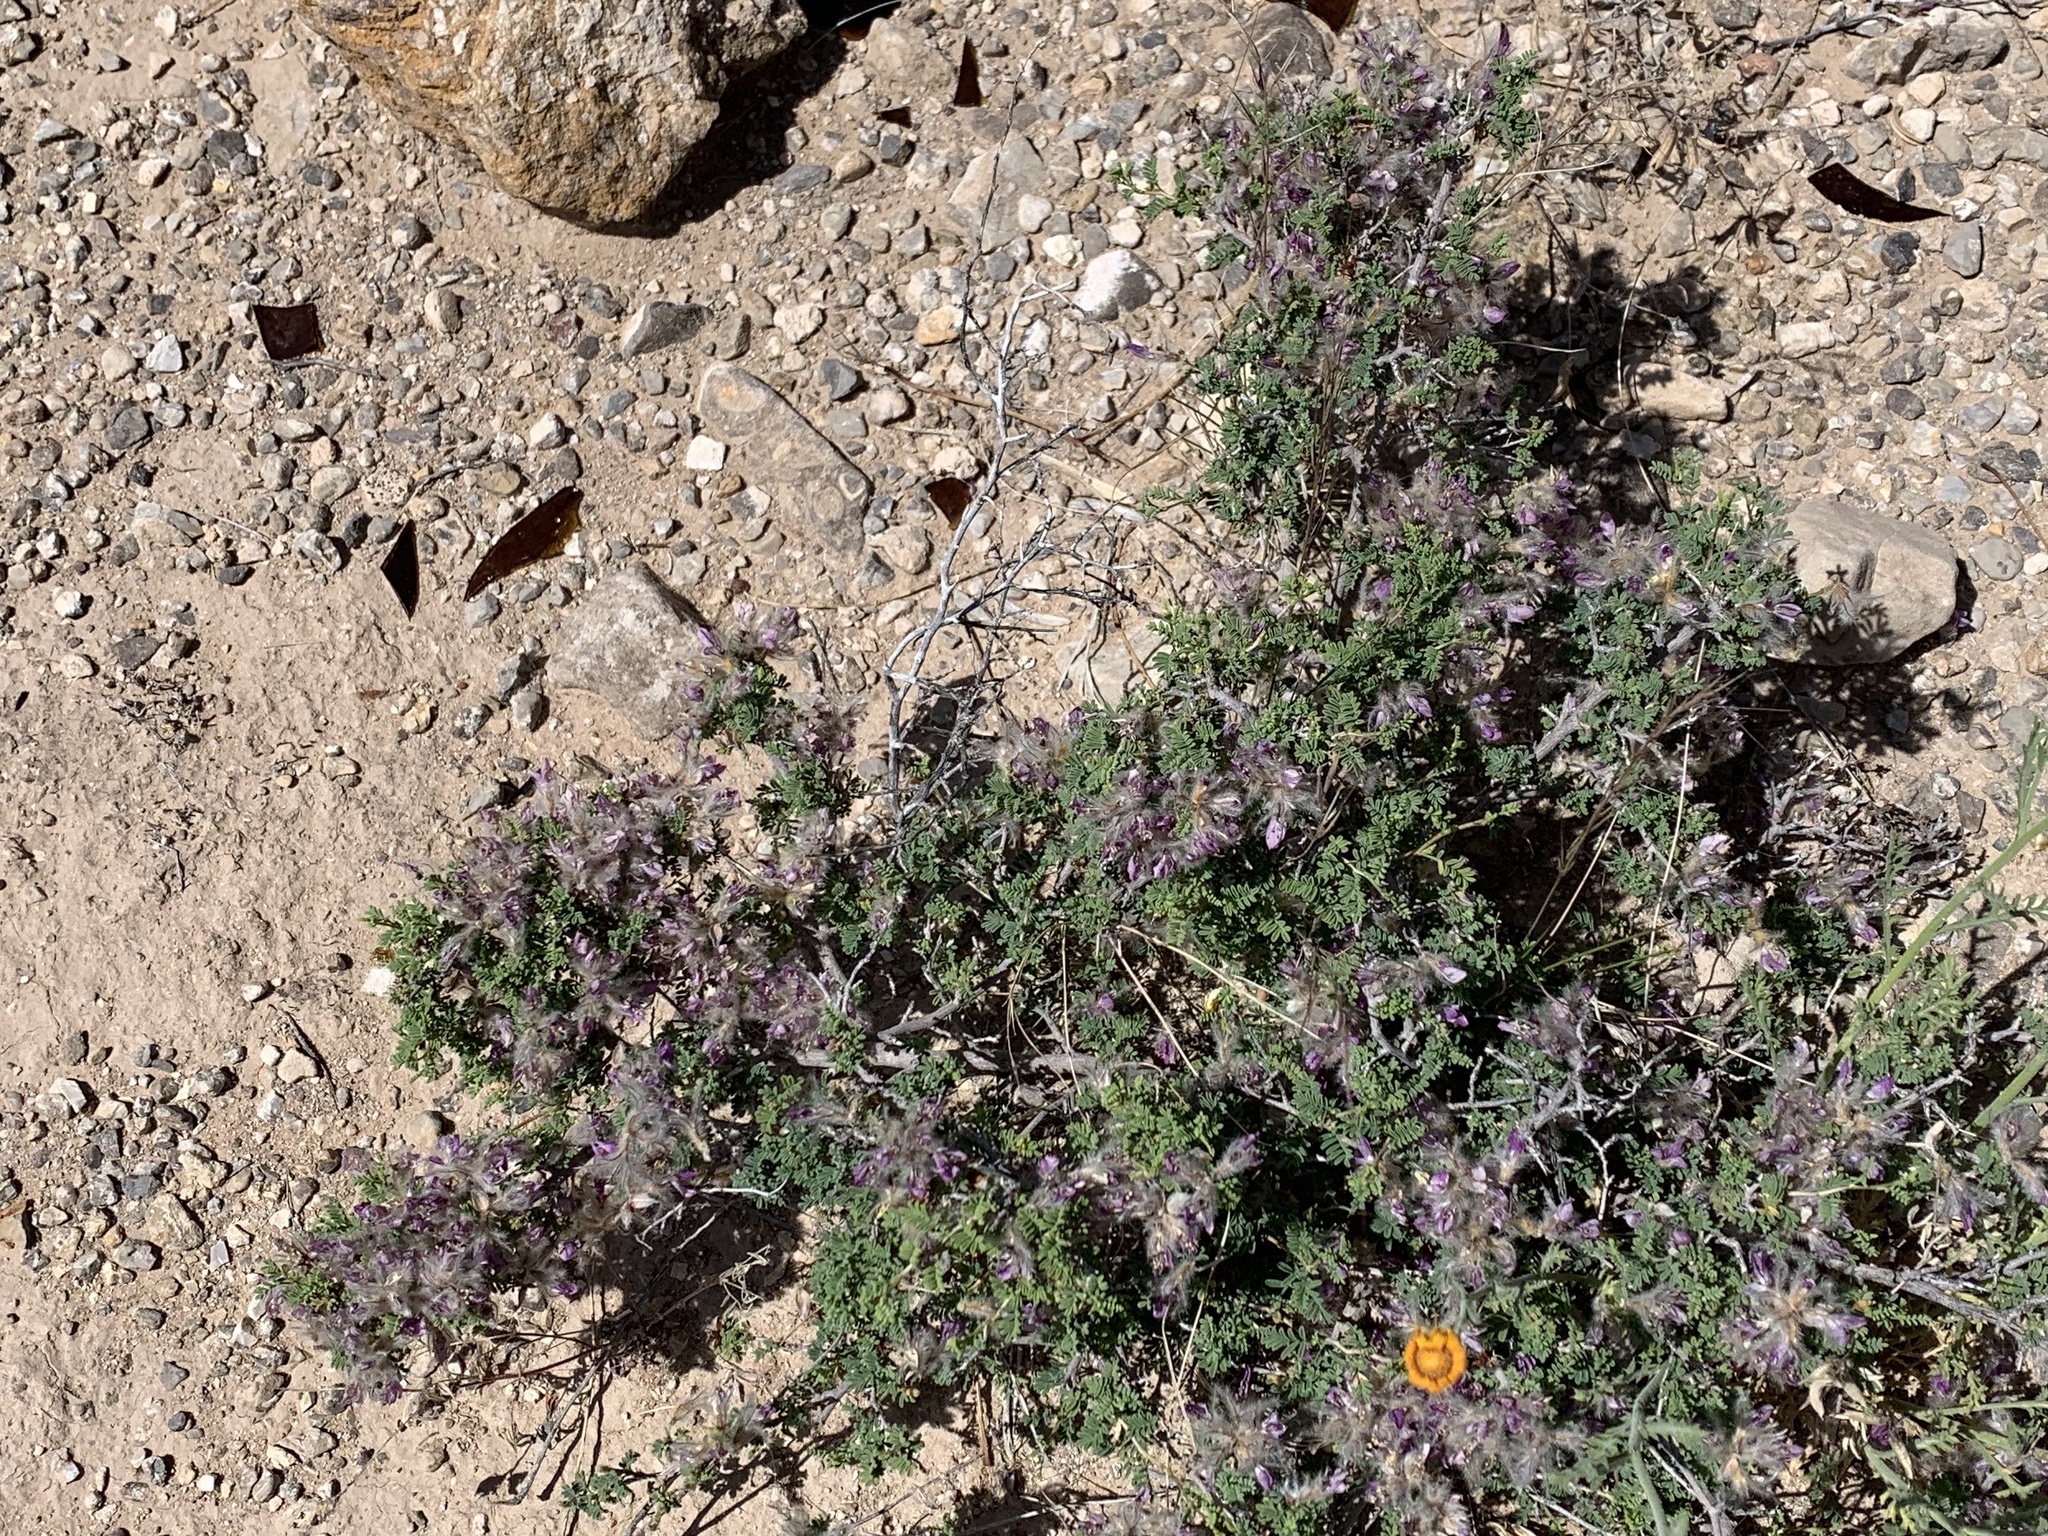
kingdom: Plantae
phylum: Tracheophyta
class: Magnoliopsida
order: Fabales
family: Fabaceae
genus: Dalea
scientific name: Dalea formosa
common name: Feather-plume dalea
